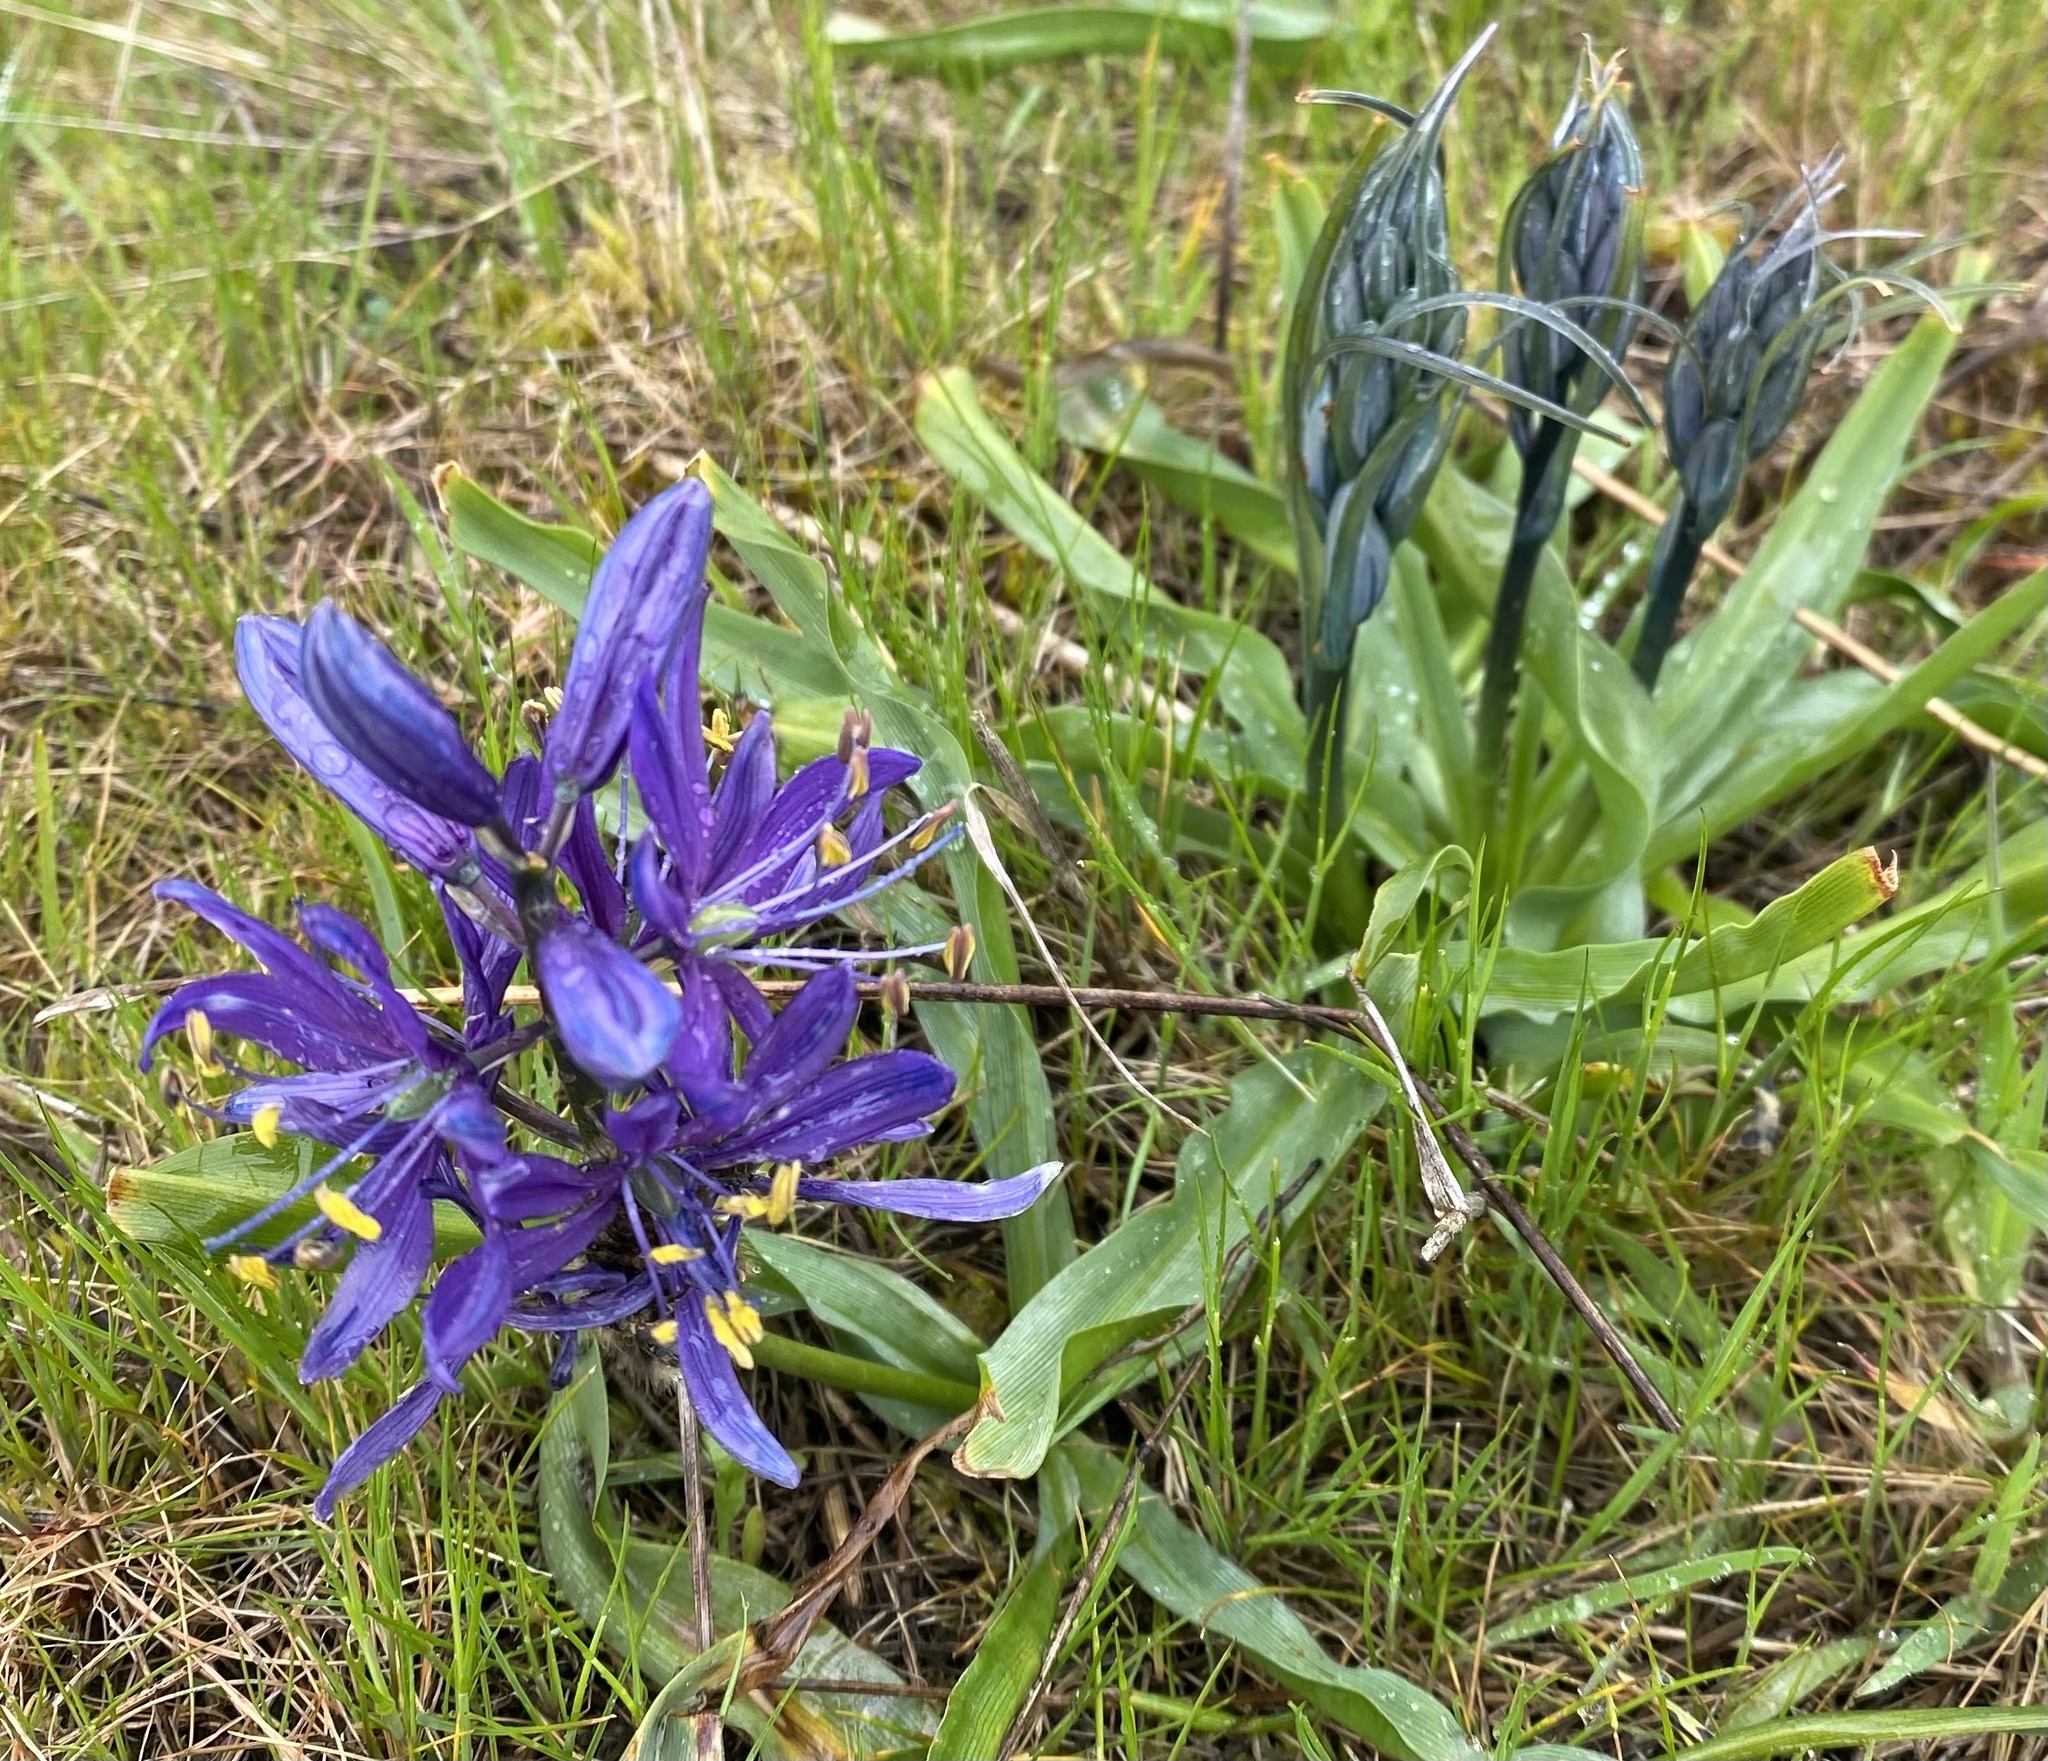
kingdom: Plantae
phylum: Tracheophyta
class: Liliopsida
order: Asparagales
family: Asparagaceae
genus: Camassia
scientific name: Camassia quamash
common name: Common camas
